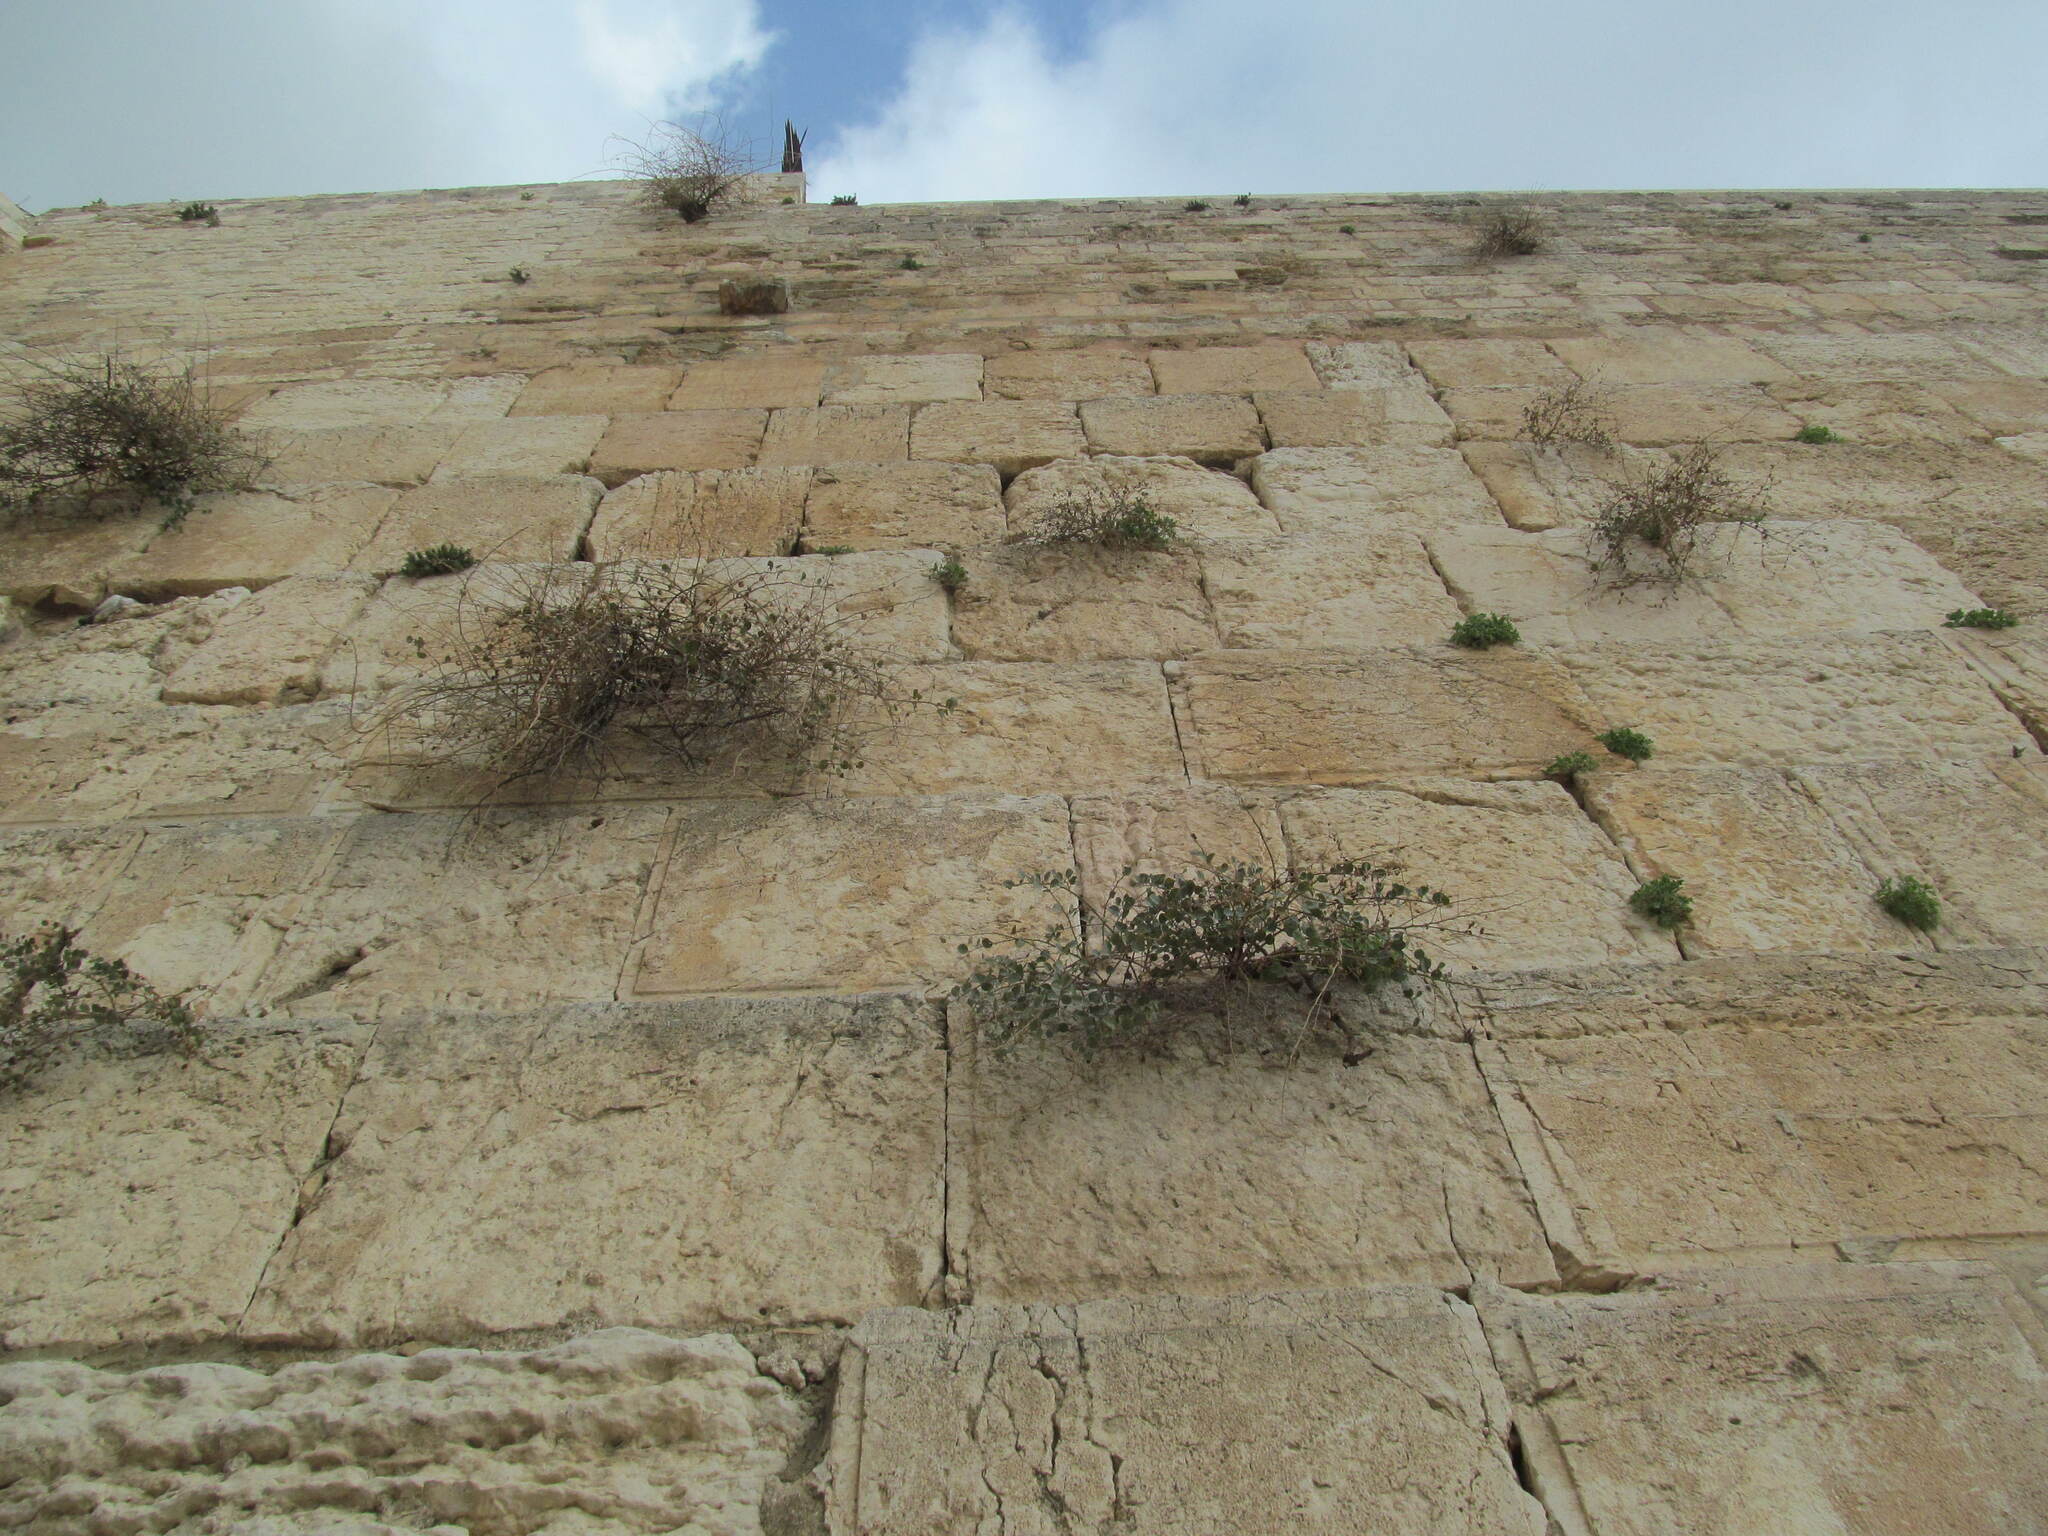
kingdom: Plantae
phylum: Tracheophyta
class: Magnoliopsida
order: Brassicales
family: Capparaceae
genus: Capparis
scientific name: Capparis spinosa
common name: Caper
